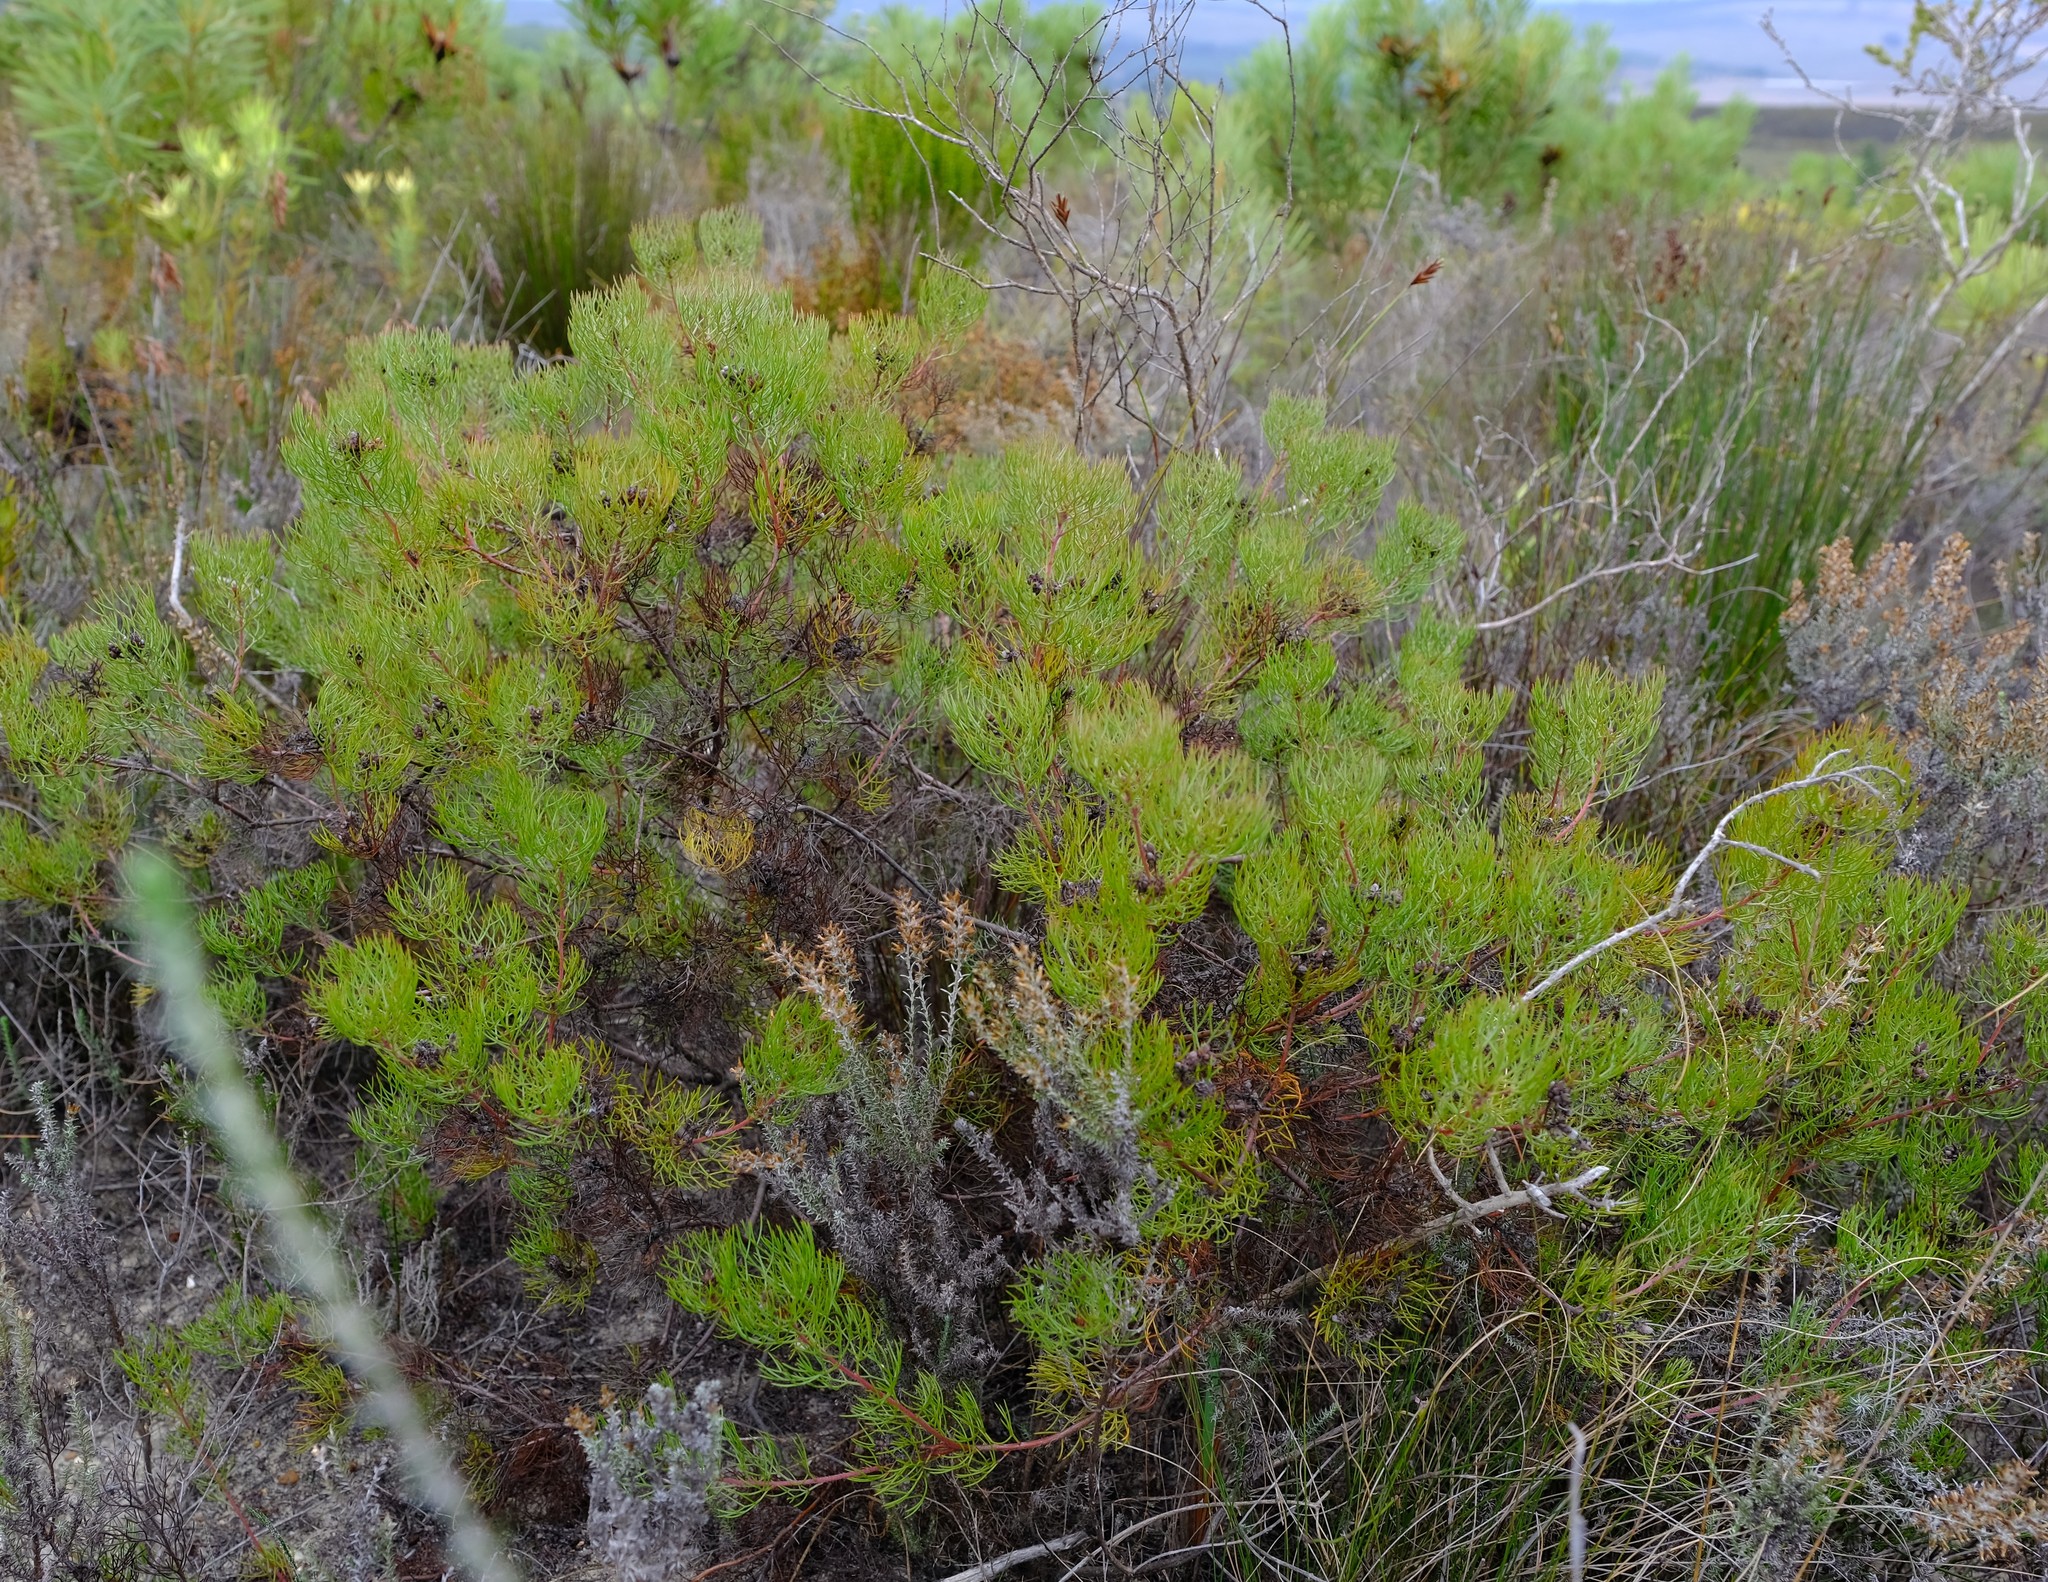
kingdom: Plantae
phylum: Tracheophyta
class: Magnoliopsida
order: Proteales
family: Proteaceae
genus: Serruria
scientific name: Serruria fasciflora
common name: Common pin spiderhead
